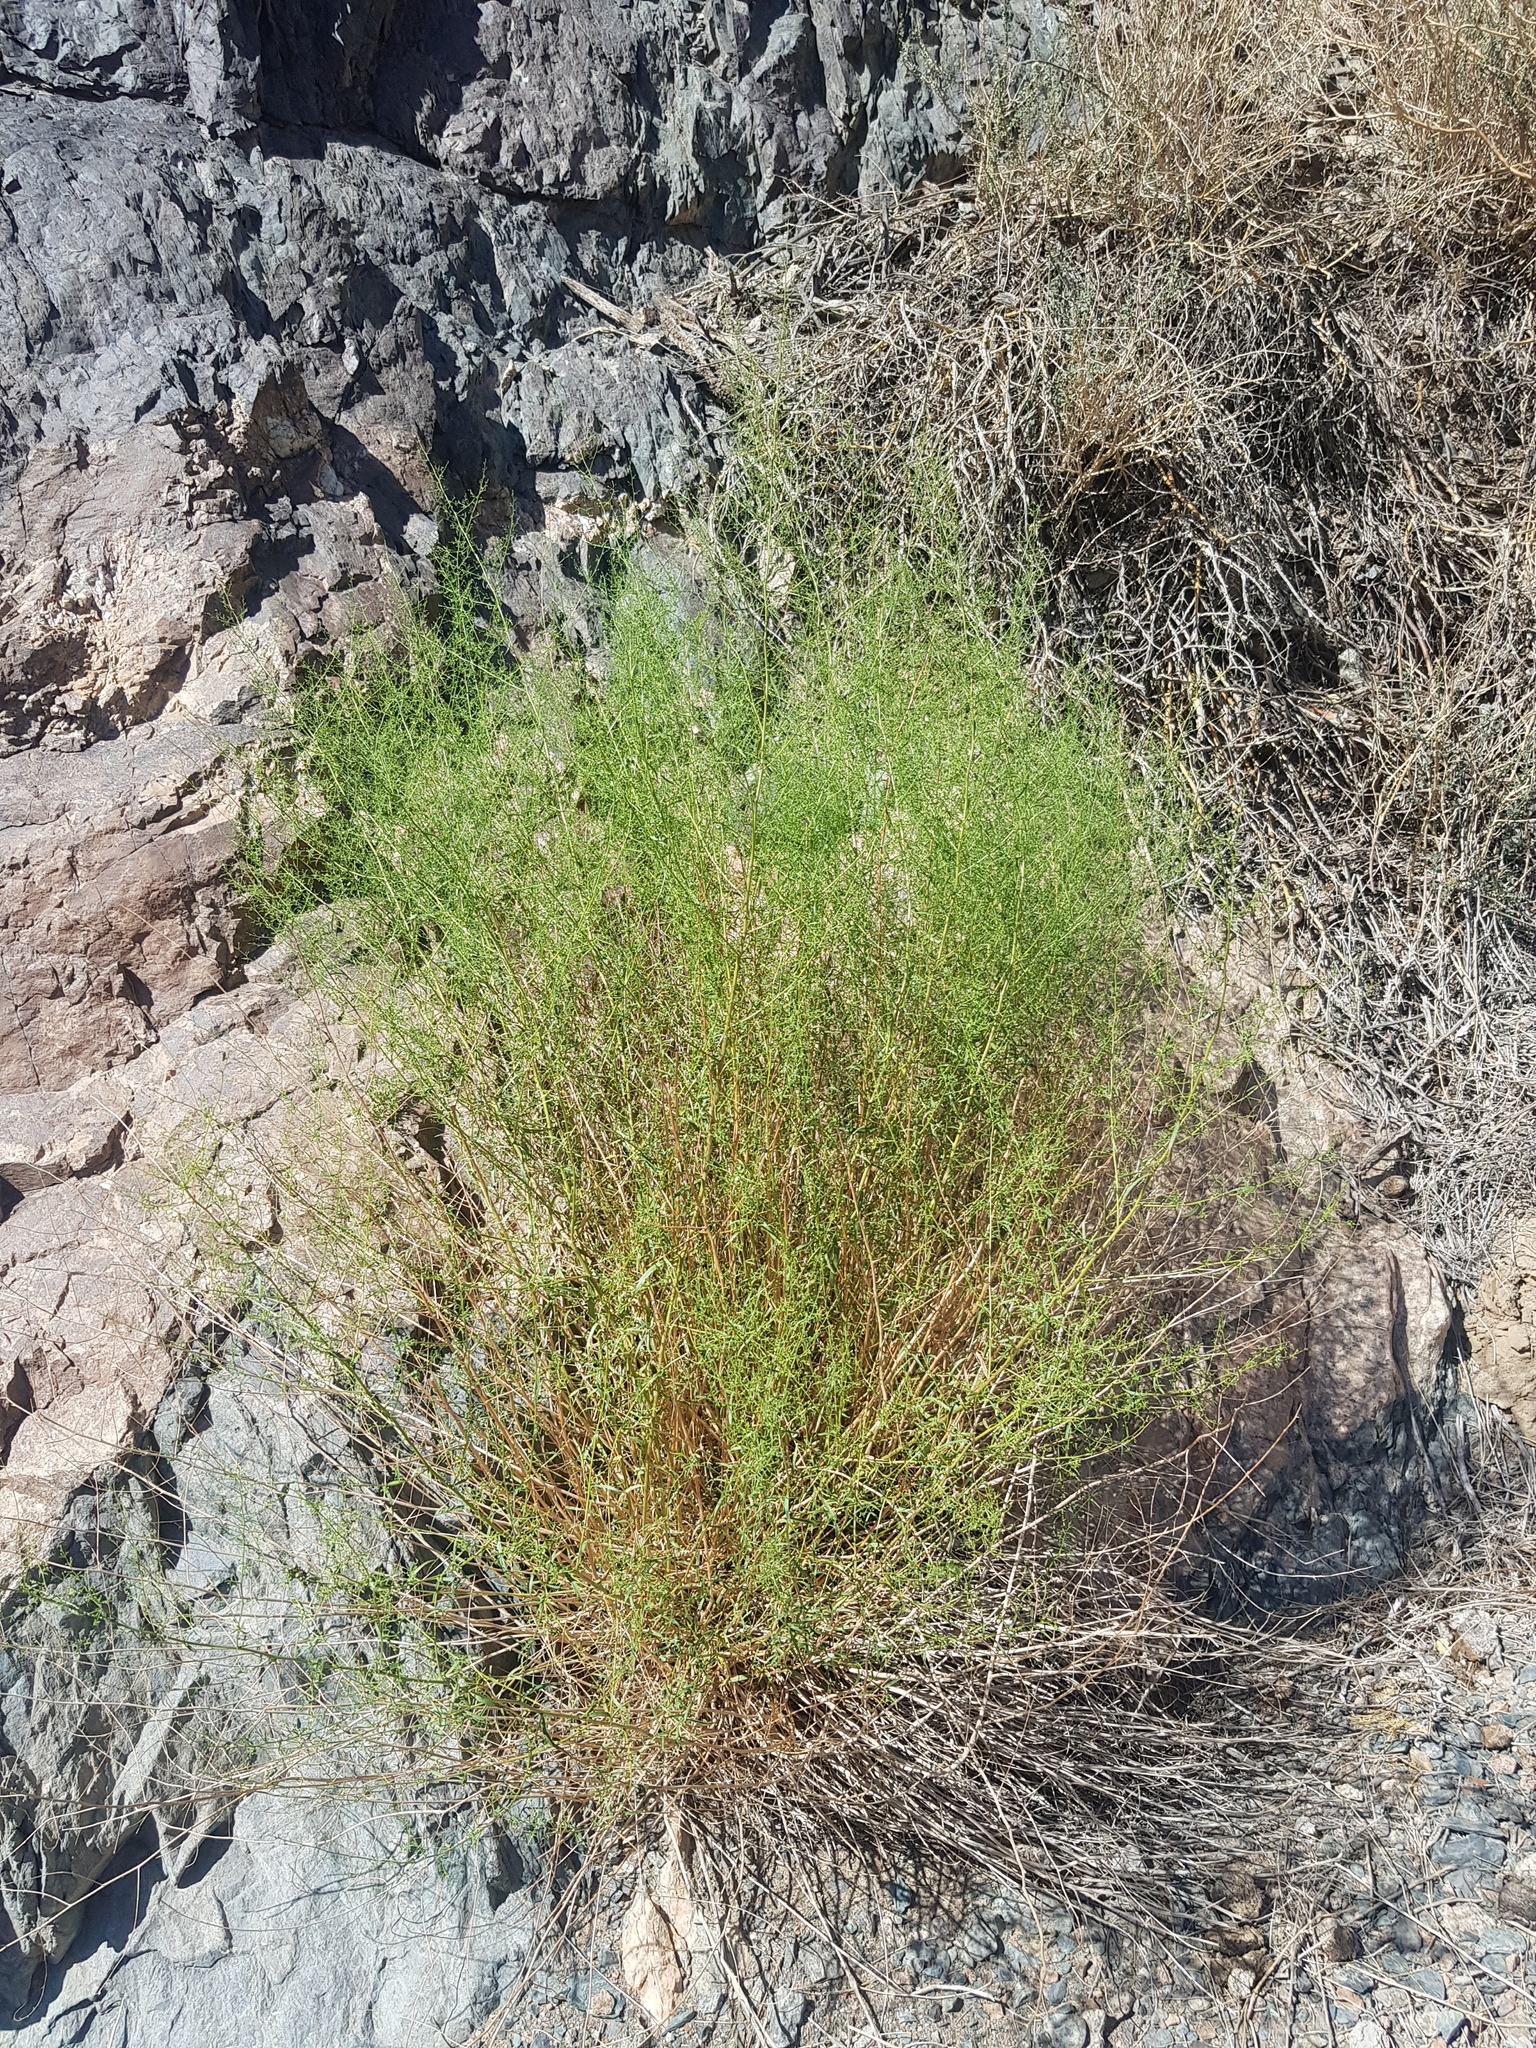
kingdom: Plantae
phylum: Tracheophyta
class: Magnoliopsida
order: Asterales
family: Asteraceae
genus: Artemisia
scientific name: Artemisia xanthochloa
